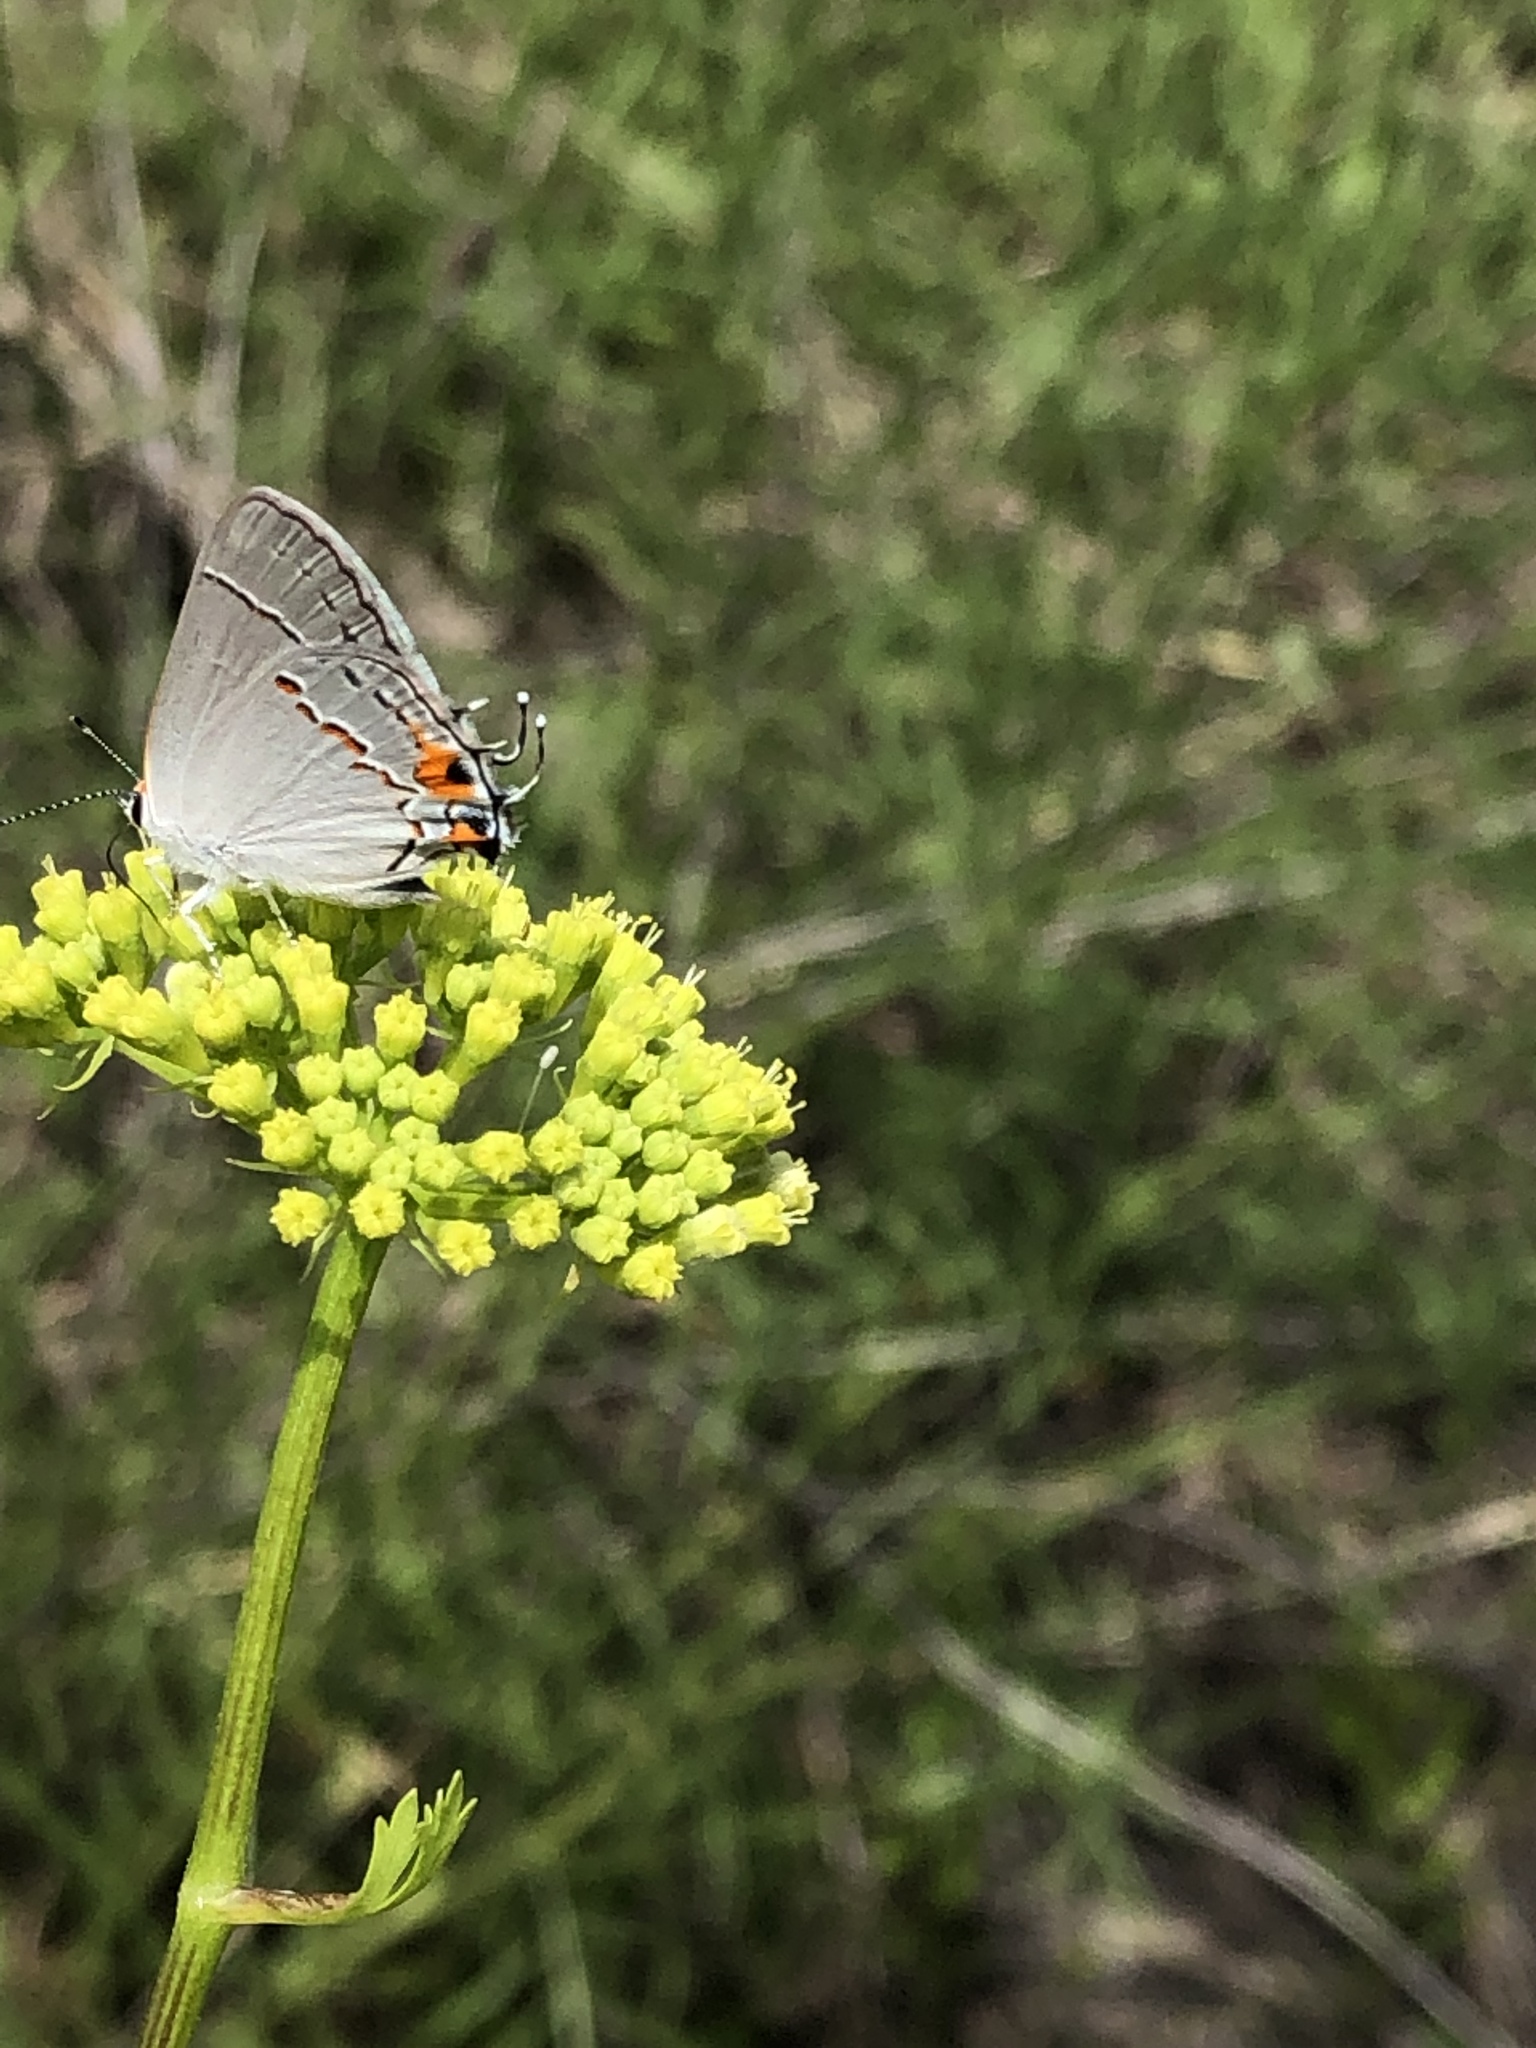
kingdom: Animalia
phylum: Arthropoda
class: Insecta
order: Lepidoptera
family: Lycaenidae
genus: Strymon
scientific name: Strymon melinus
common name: Gray hairstreak
